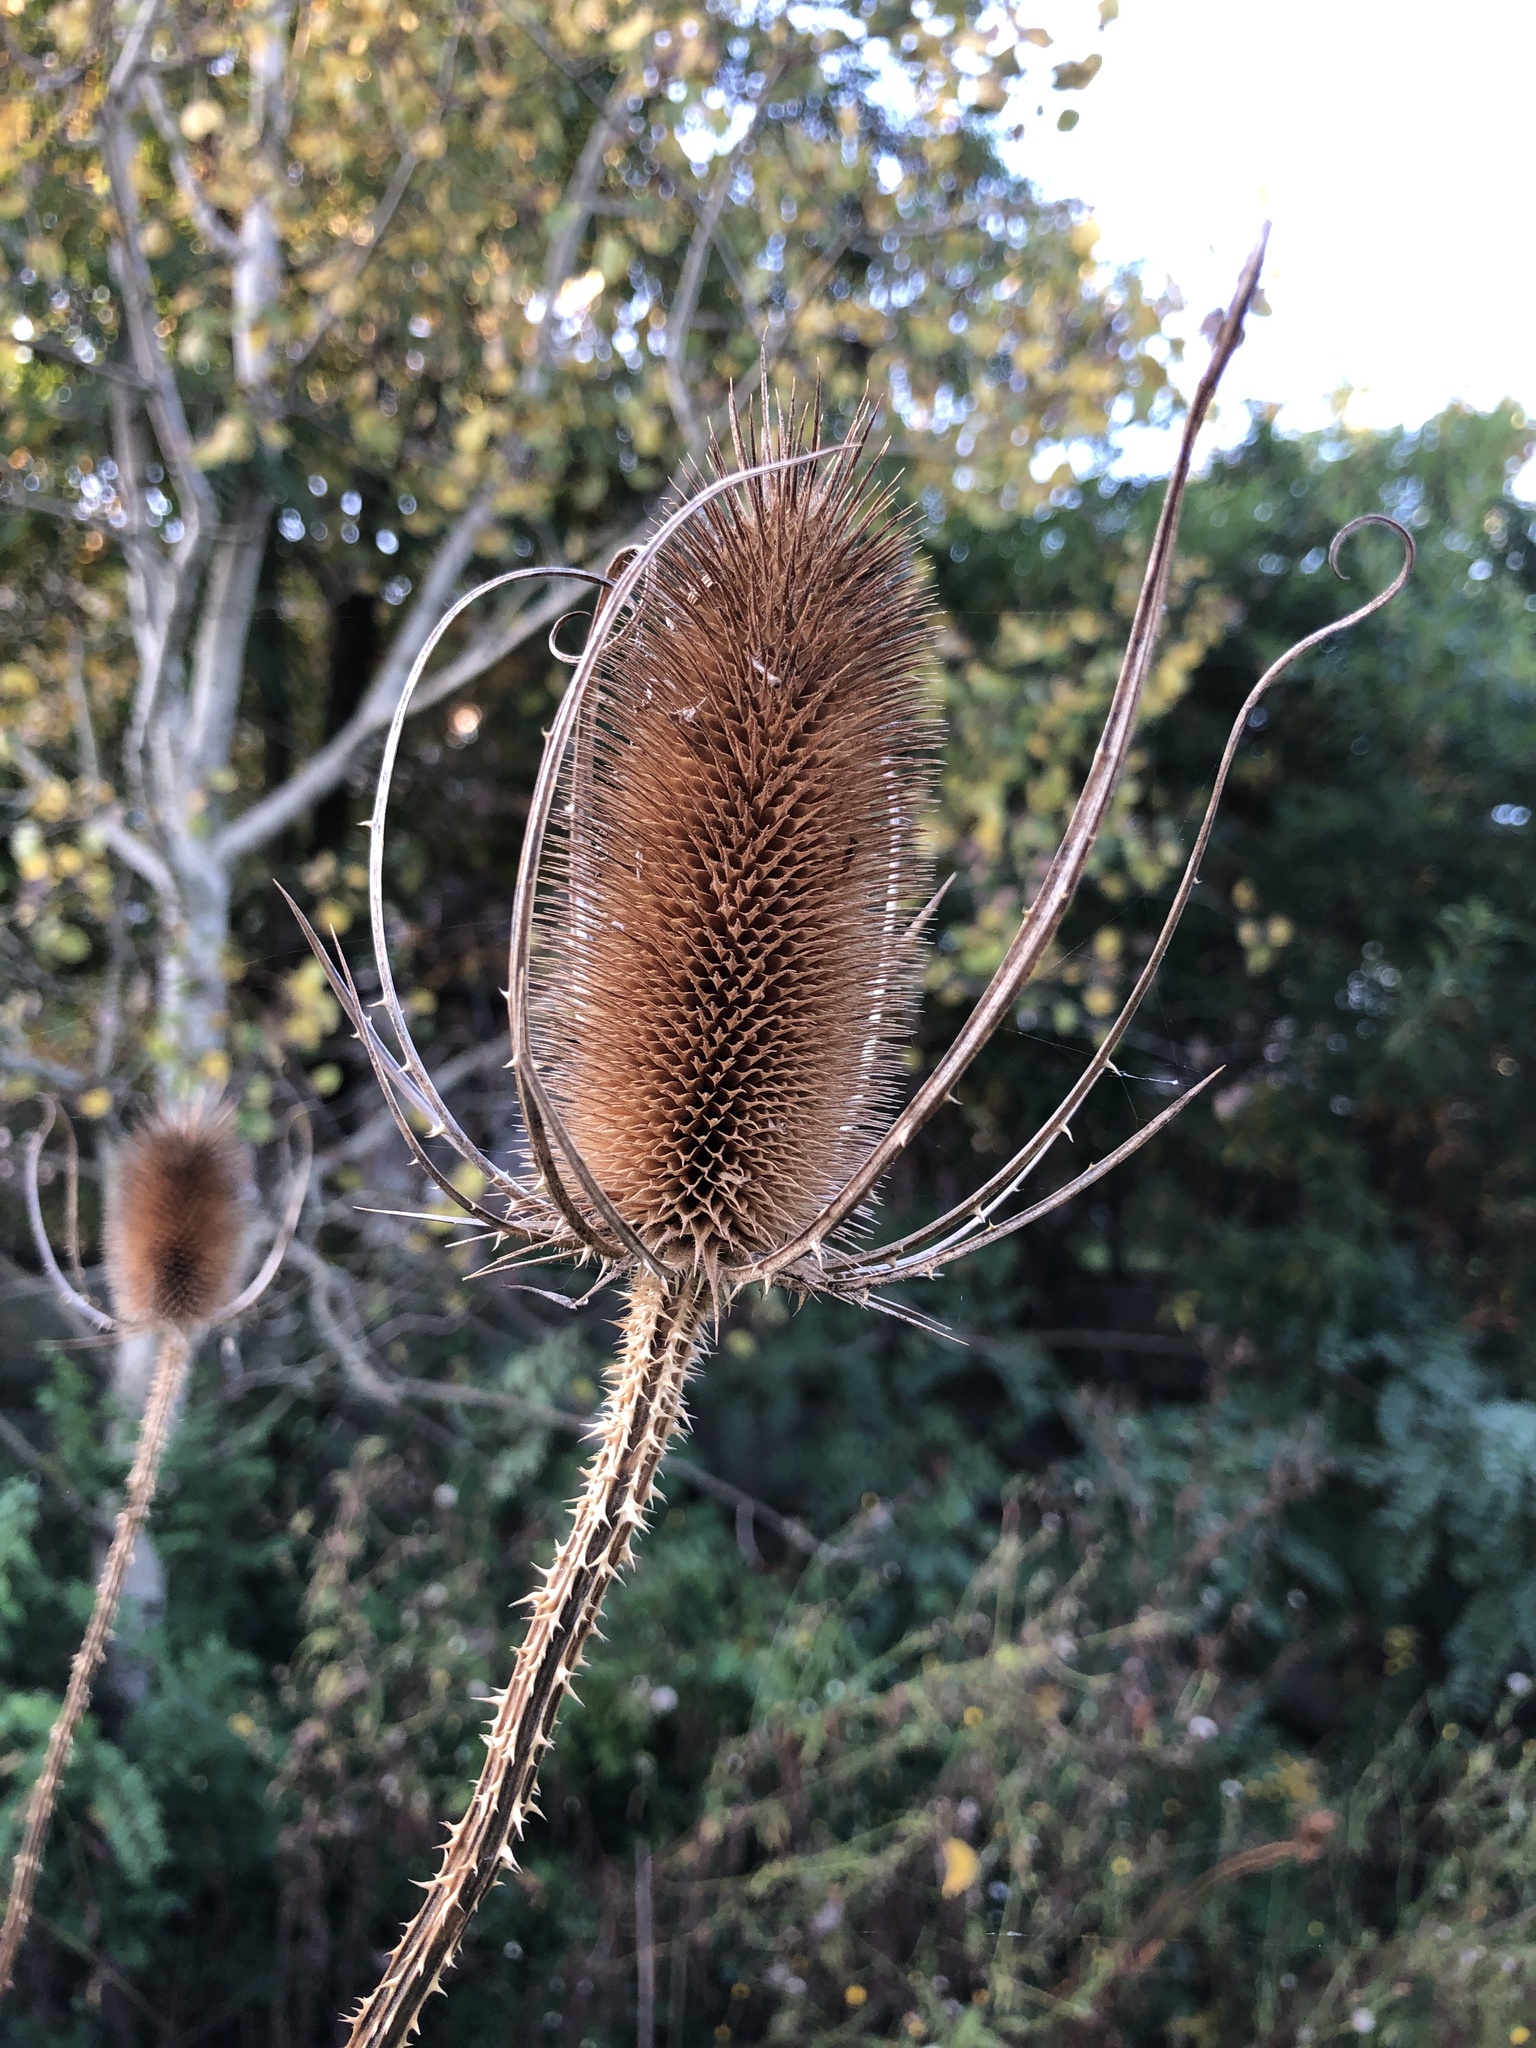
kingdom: Plantae
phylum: Tracheophyta
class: Magnoliopsida
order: Dipsacales
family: Caprifoliaceae
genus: Dipsacus
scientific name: Dipsacus fullonum
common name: Teasel
